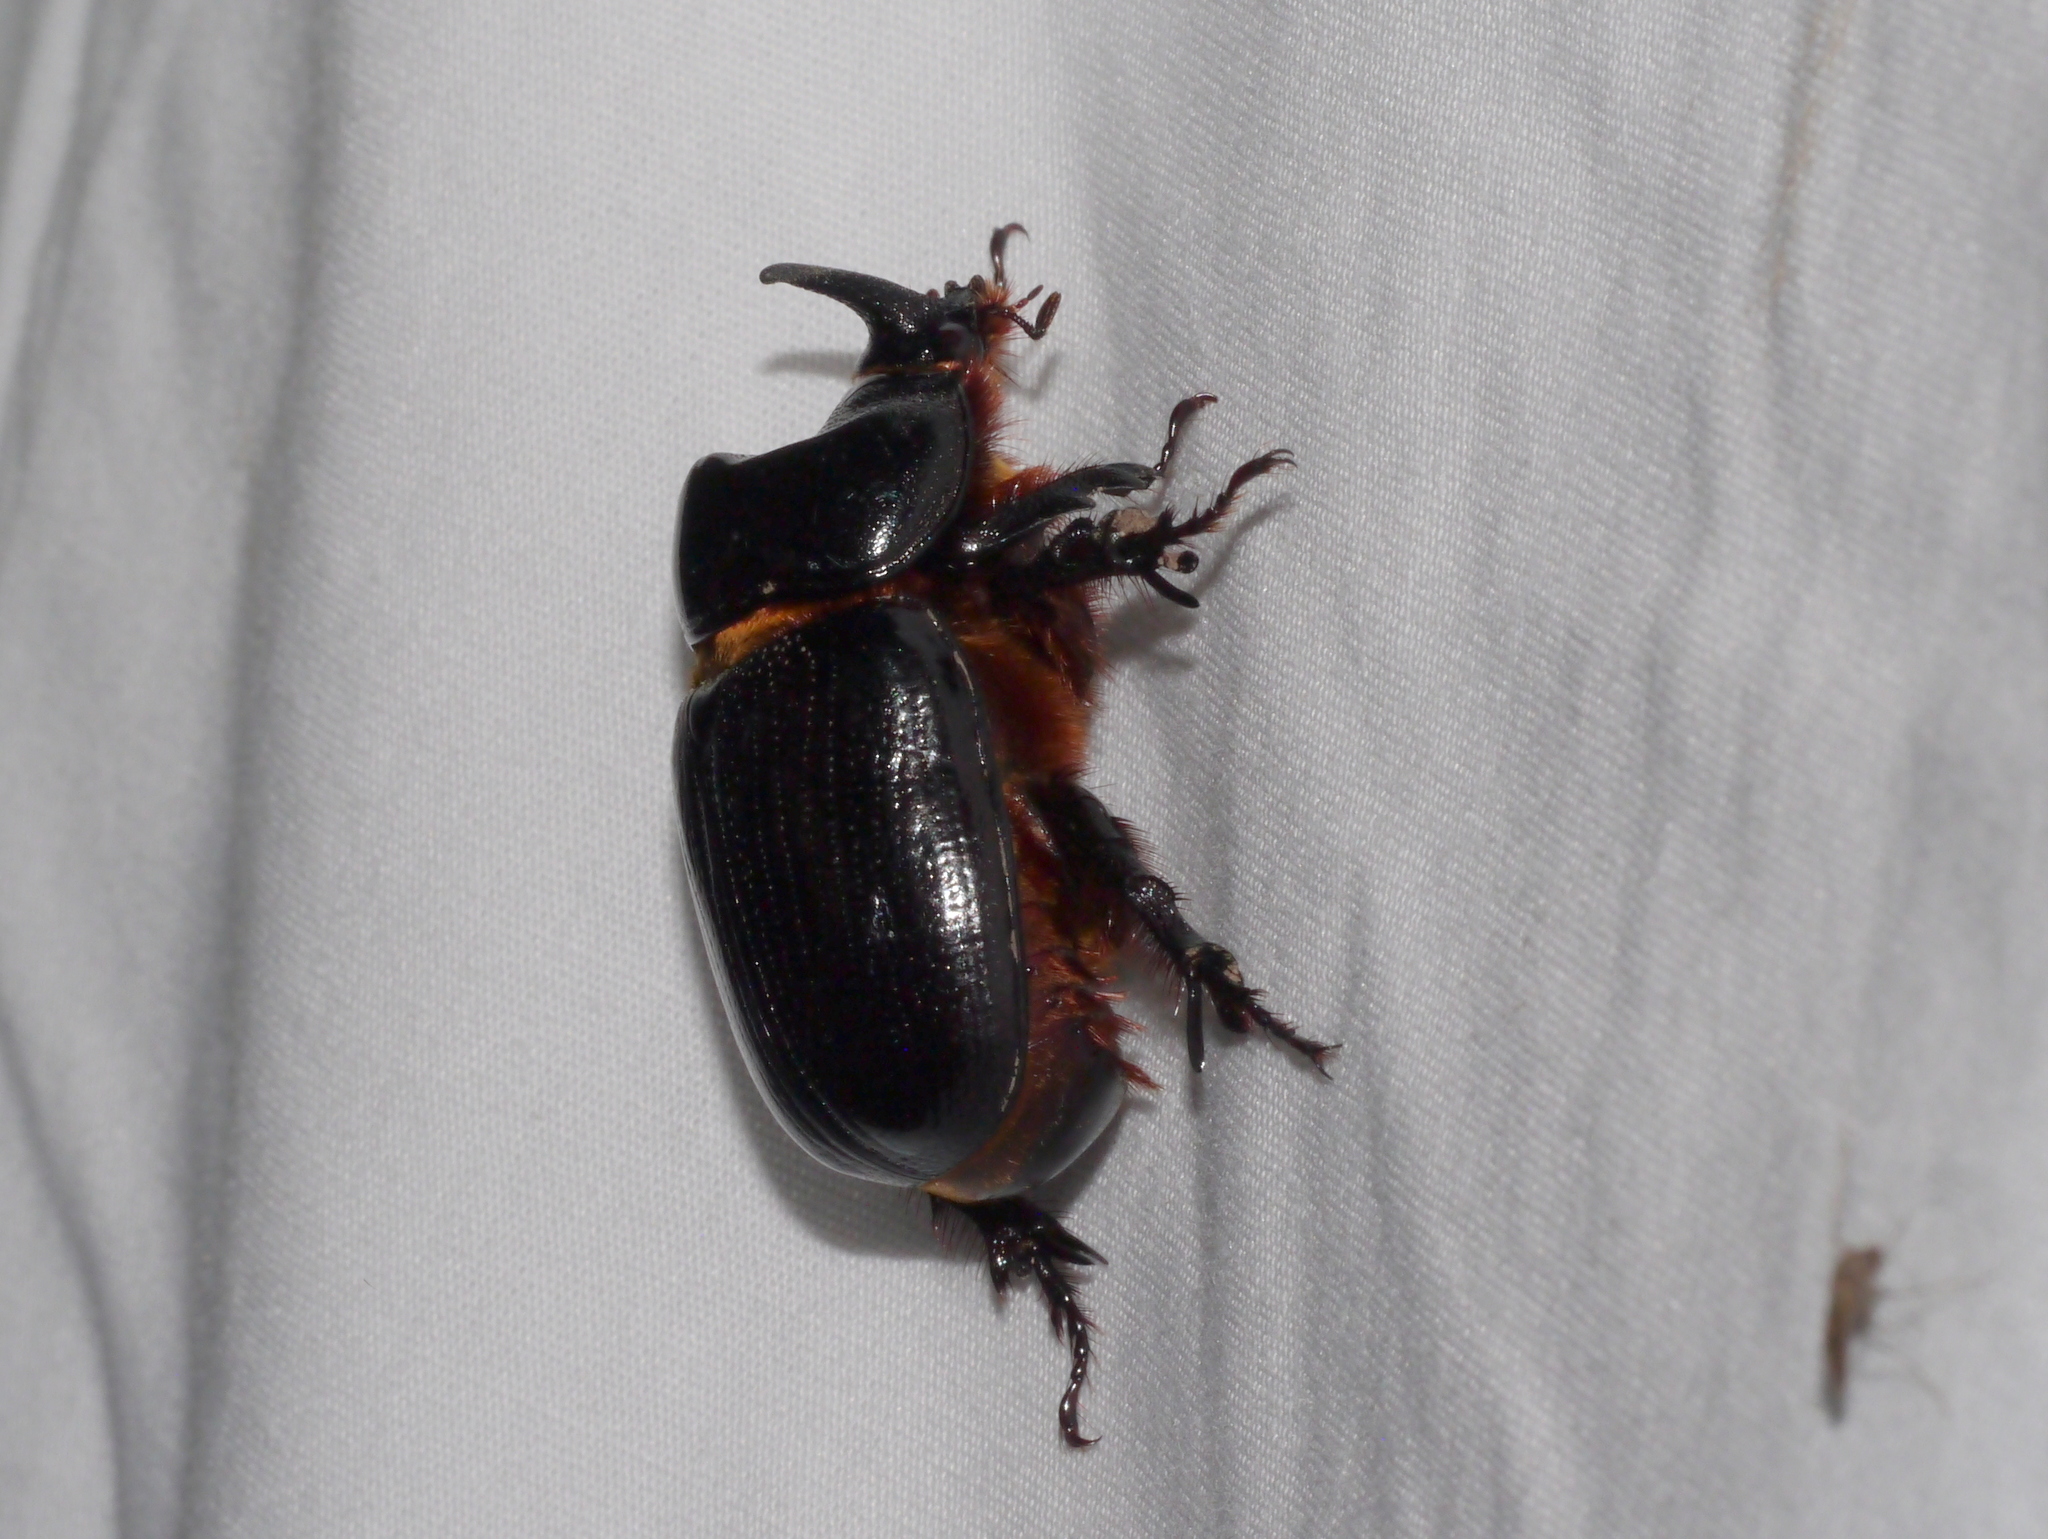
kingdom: Animalia
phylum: Arthropoda
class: Insecta
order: Coleoptera
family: Scarabaeidae
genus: Xyloryctes
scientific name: Xyloryctes thestalus
